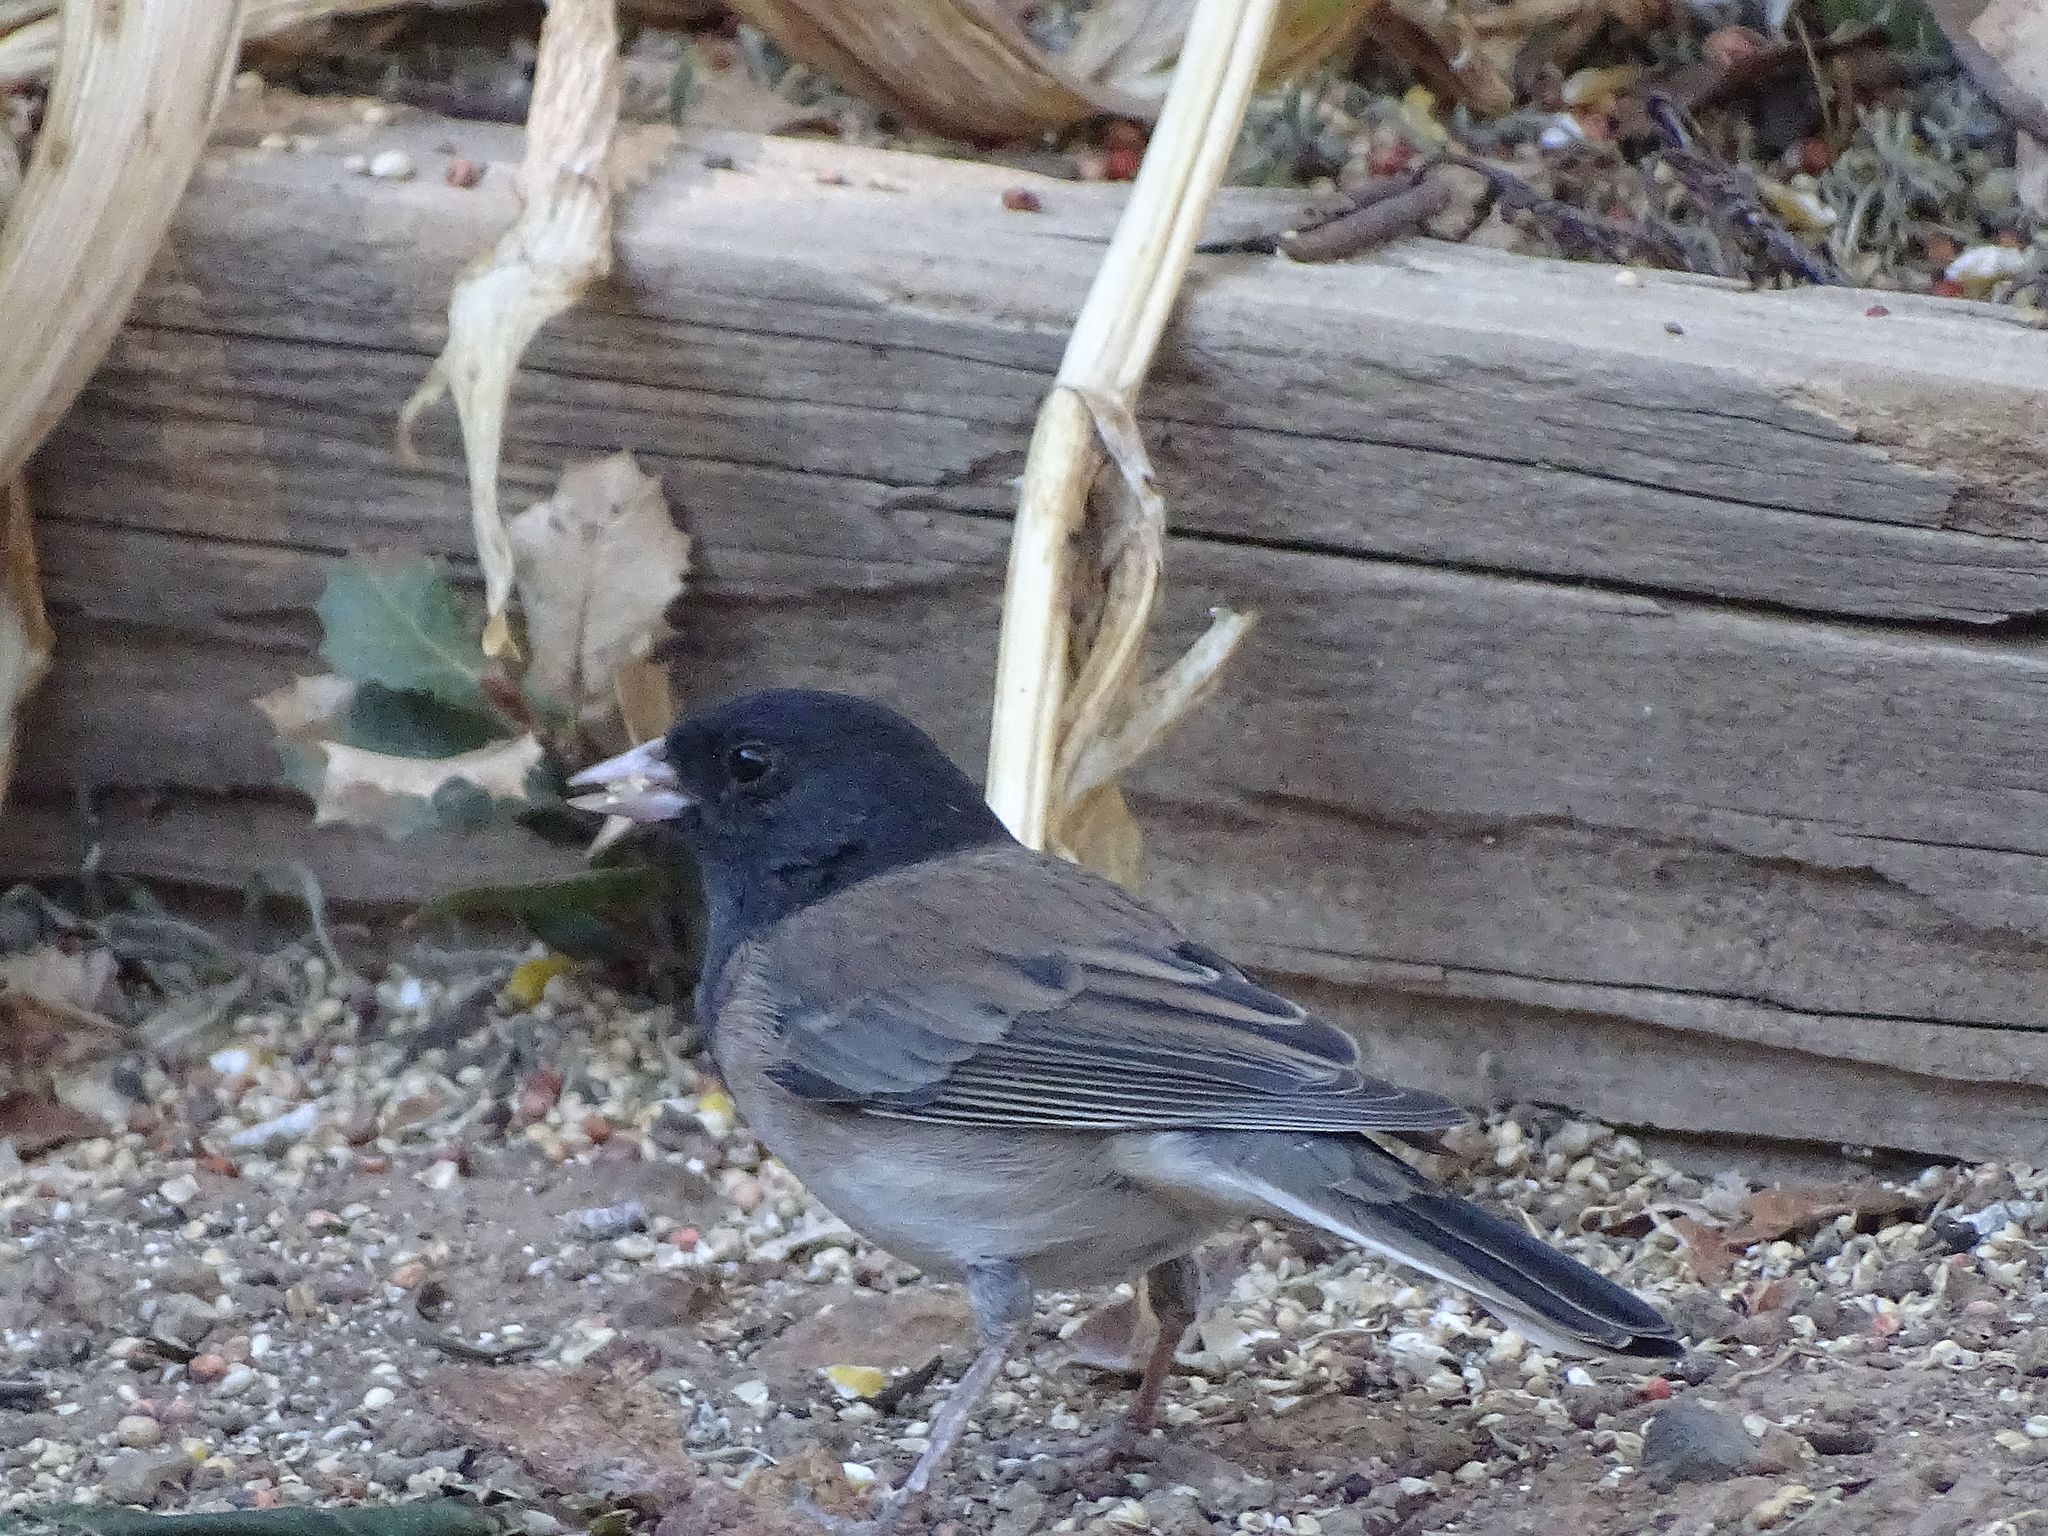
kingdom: Animalia
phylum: Chordata
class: Aves
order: Passeriformes
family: Passerellidae
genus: Junco
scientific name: Junco hyemalis
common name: Dark-eyed junco
